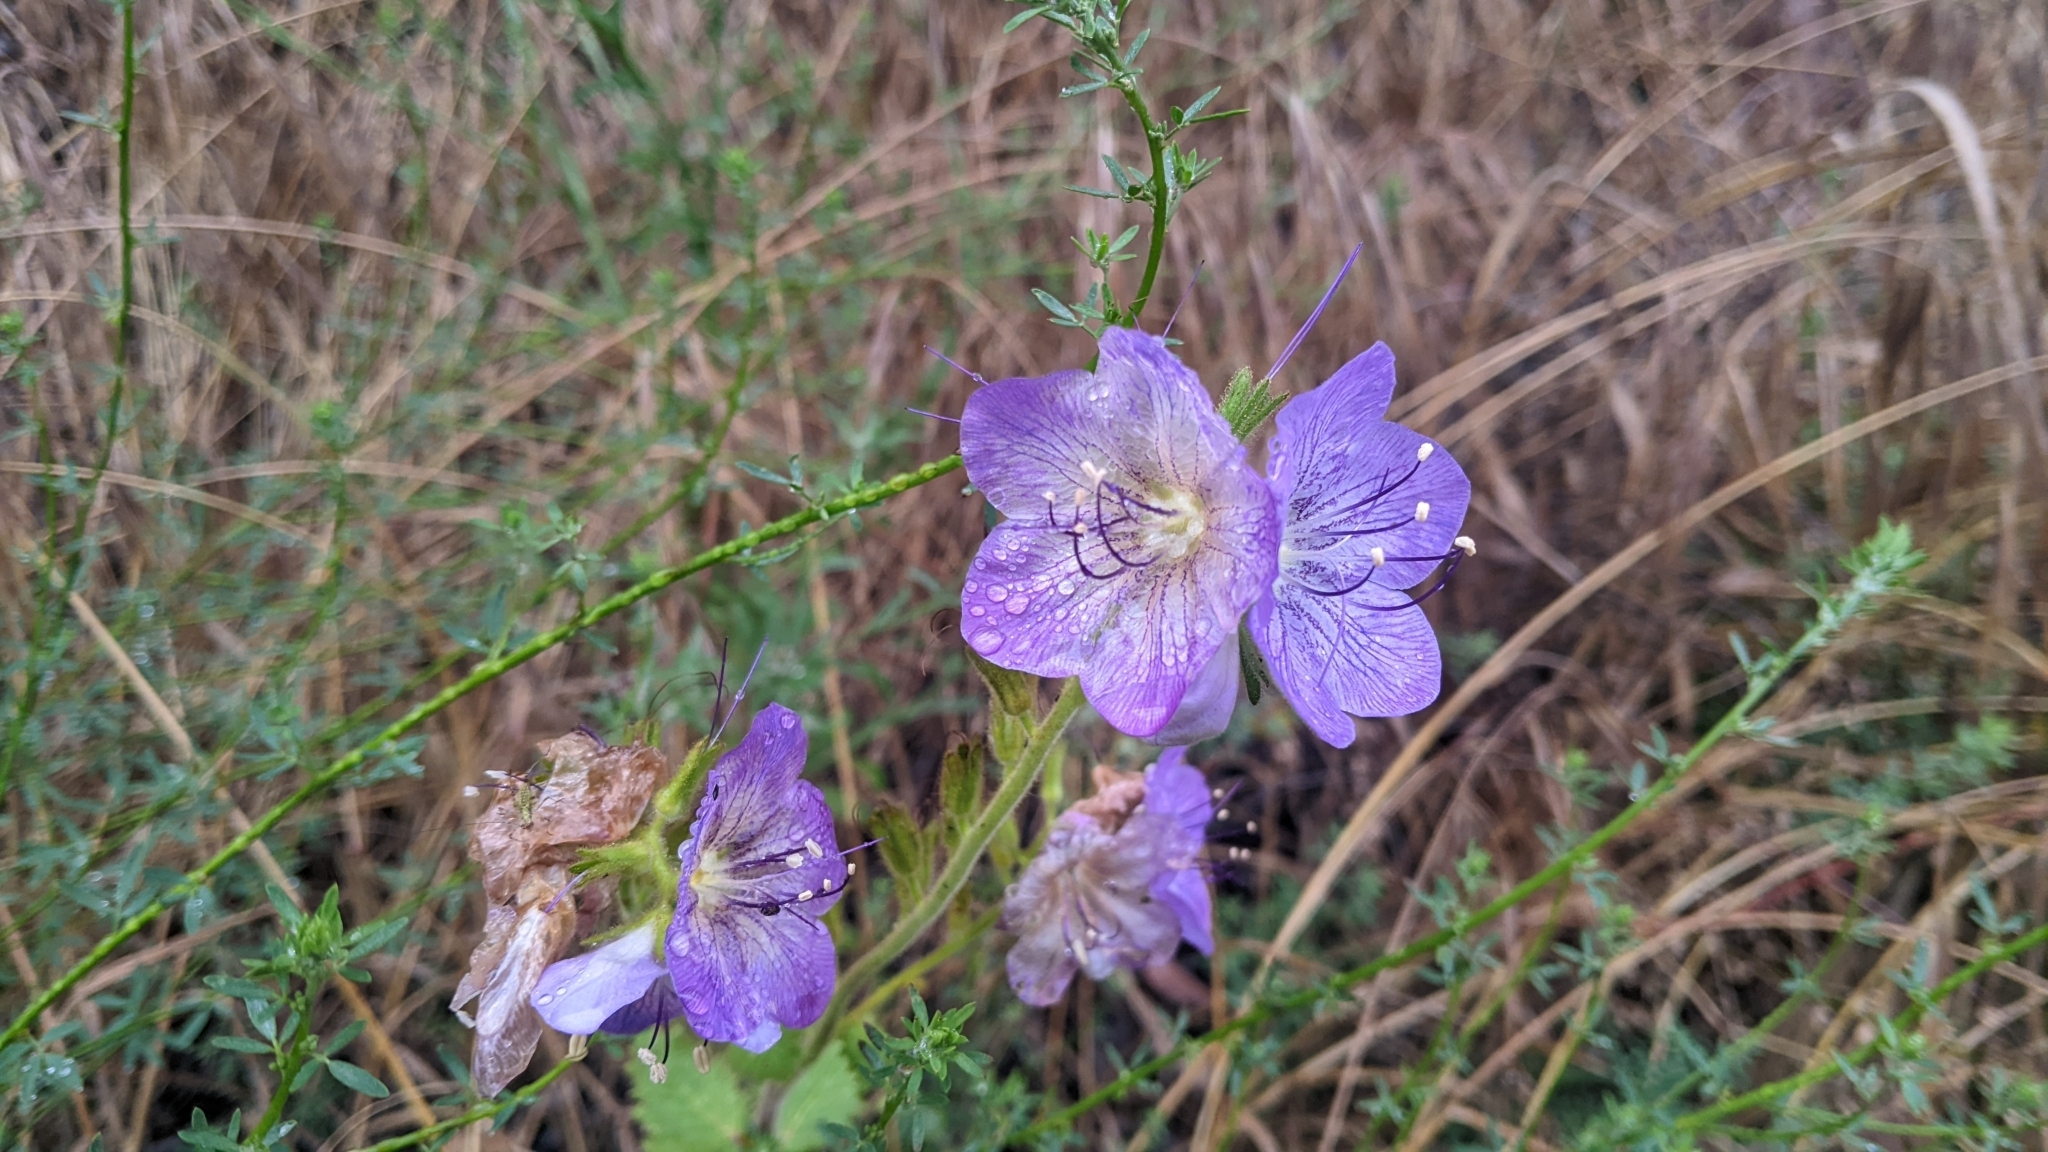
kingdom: Plantae
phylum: Tracheophyta
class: Magnoliopsida
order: Boraginales
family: Hydrophyllaceae
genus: Phacelia
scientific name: Phacelia grandiflora
